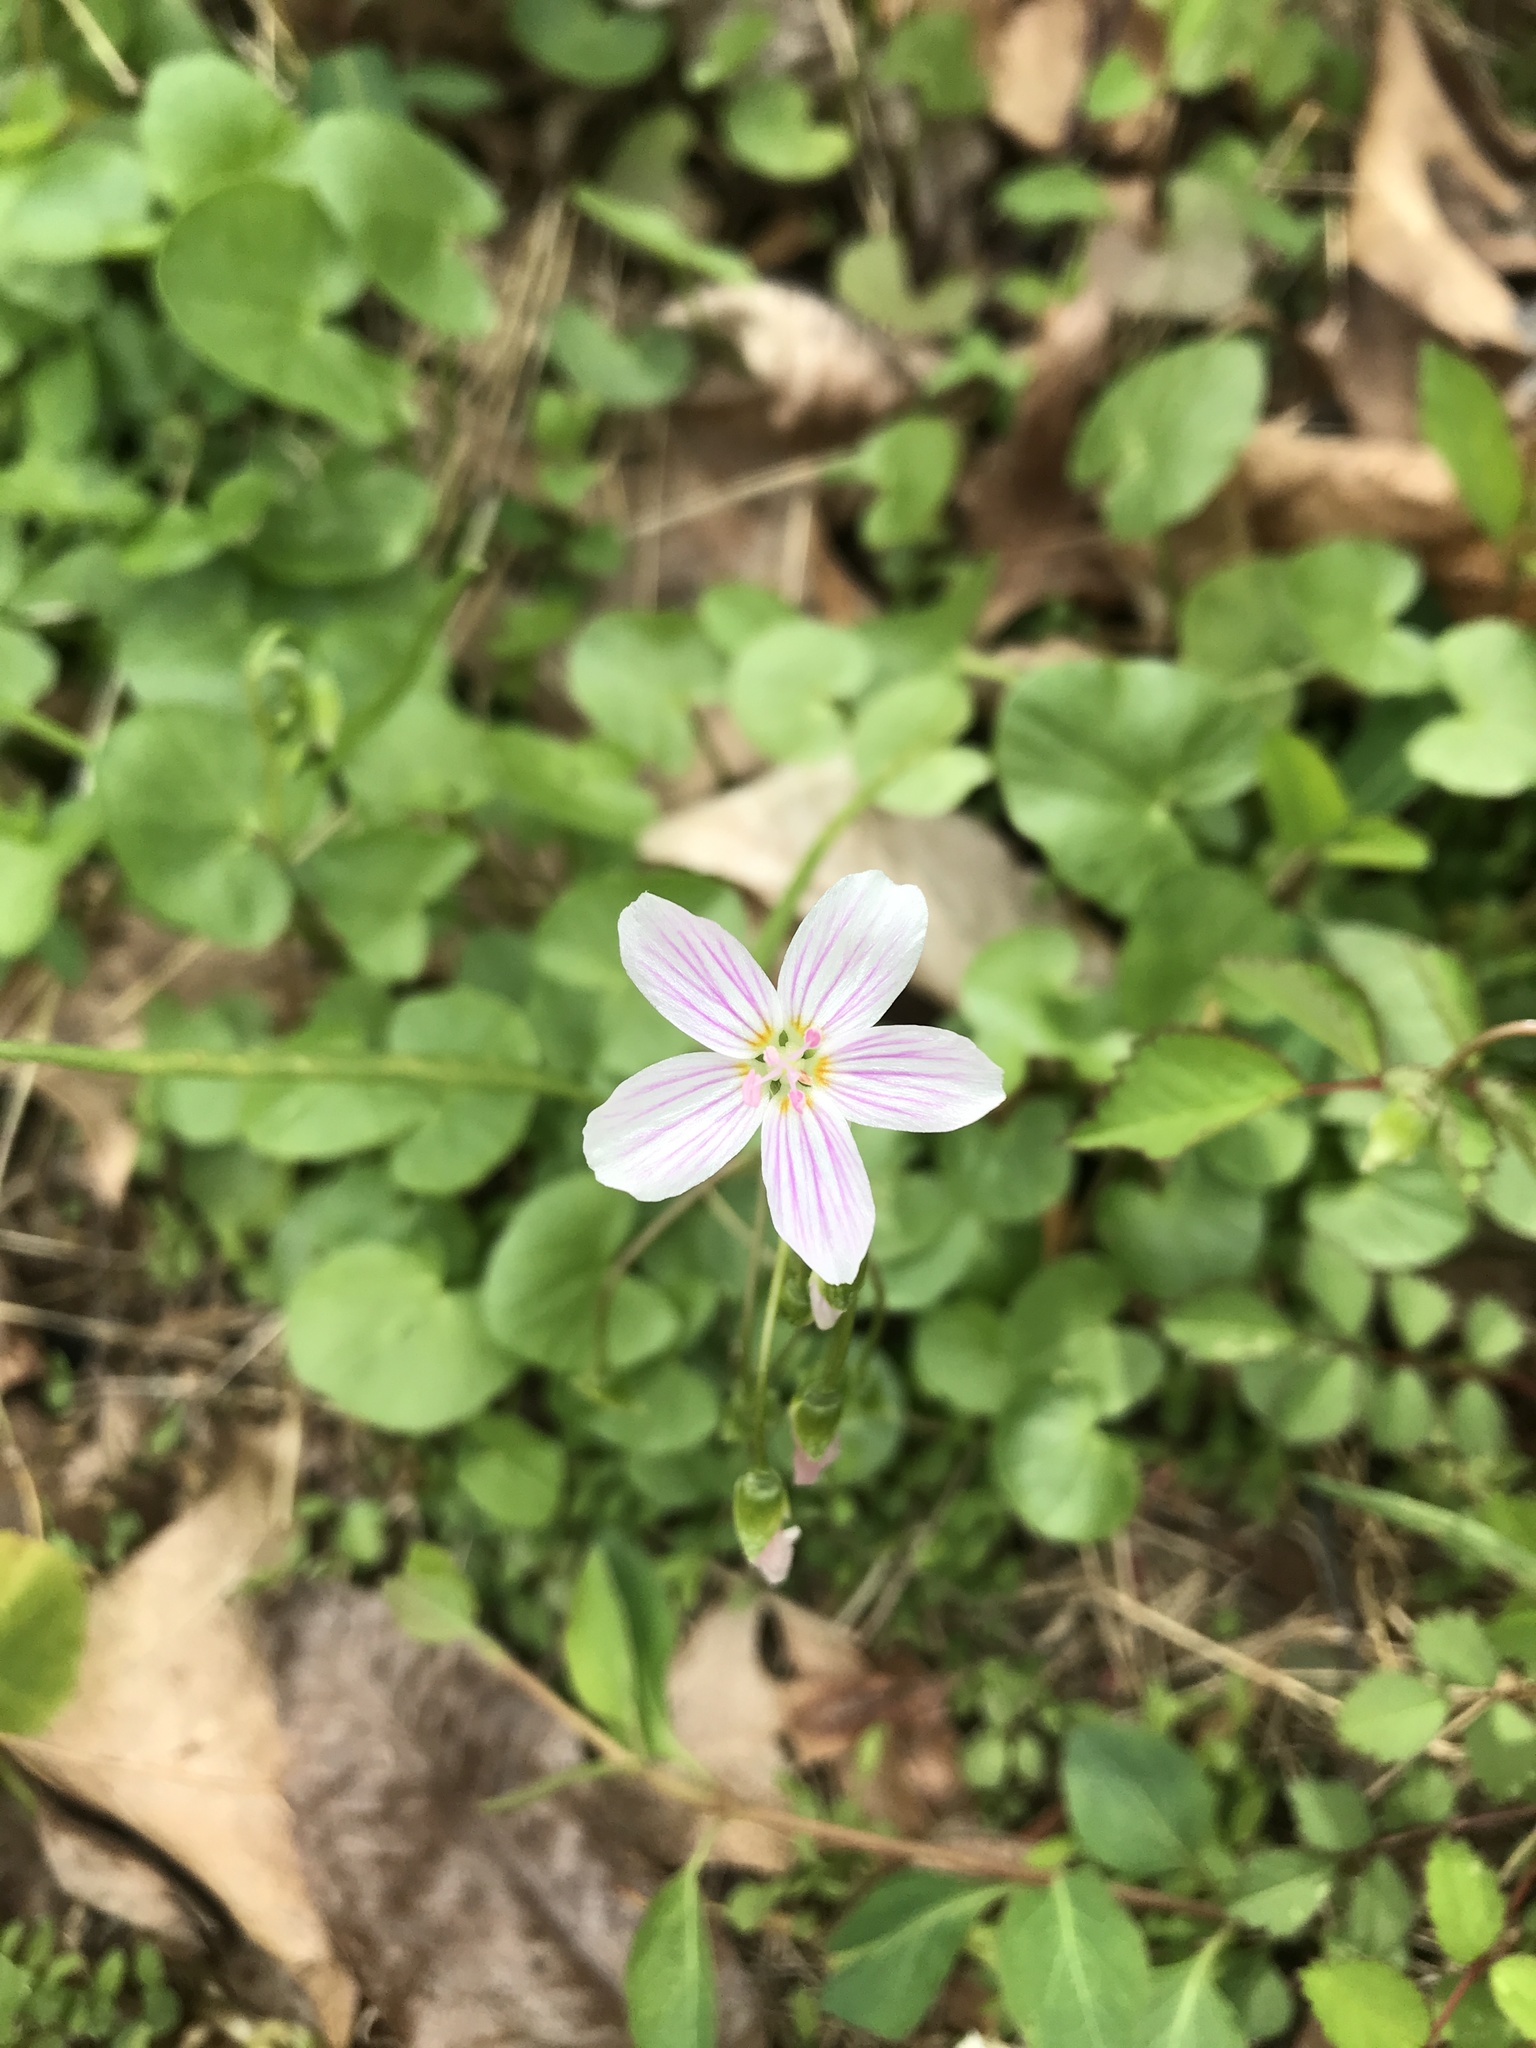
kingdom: Plantae
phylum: Tracheophyta
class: Magnoliopsida
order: Caryophyllales
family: Montiaceae
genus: Claytonia
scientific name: Claytonia virginica
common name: Virginia springbeauty
